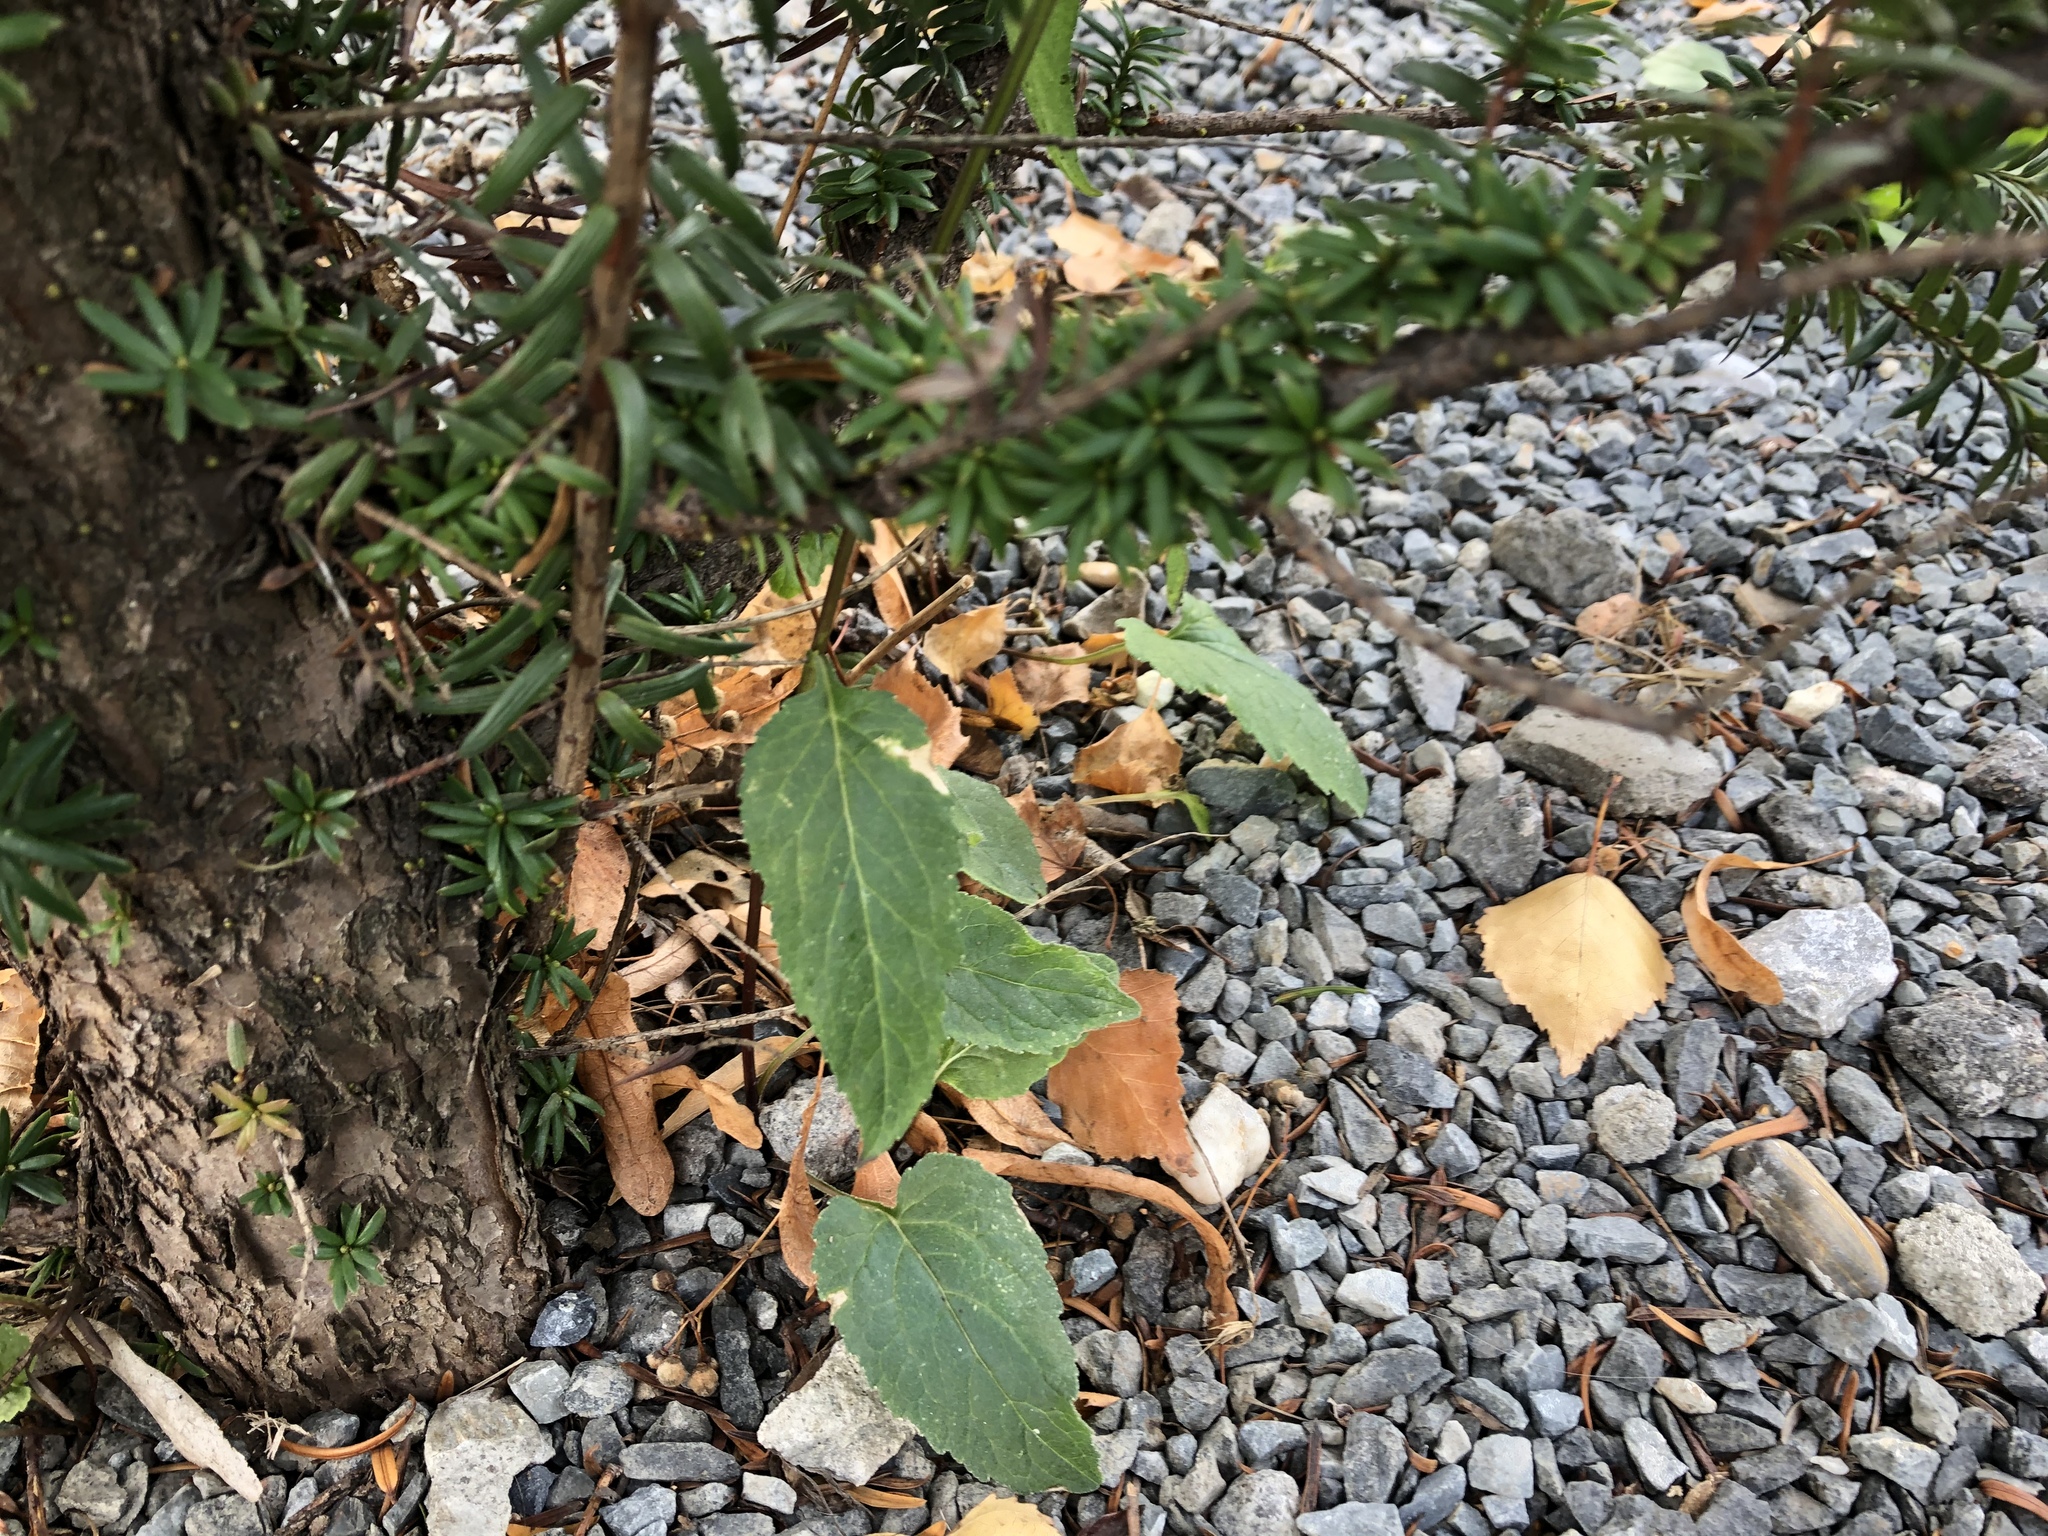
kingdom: Plantae
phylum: Tracheophyta
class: Magnoliopsida
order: Asterales
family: Campanulaceae
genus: Campanula
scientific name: Campanula rapunculoides
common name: Creeping bellflower
